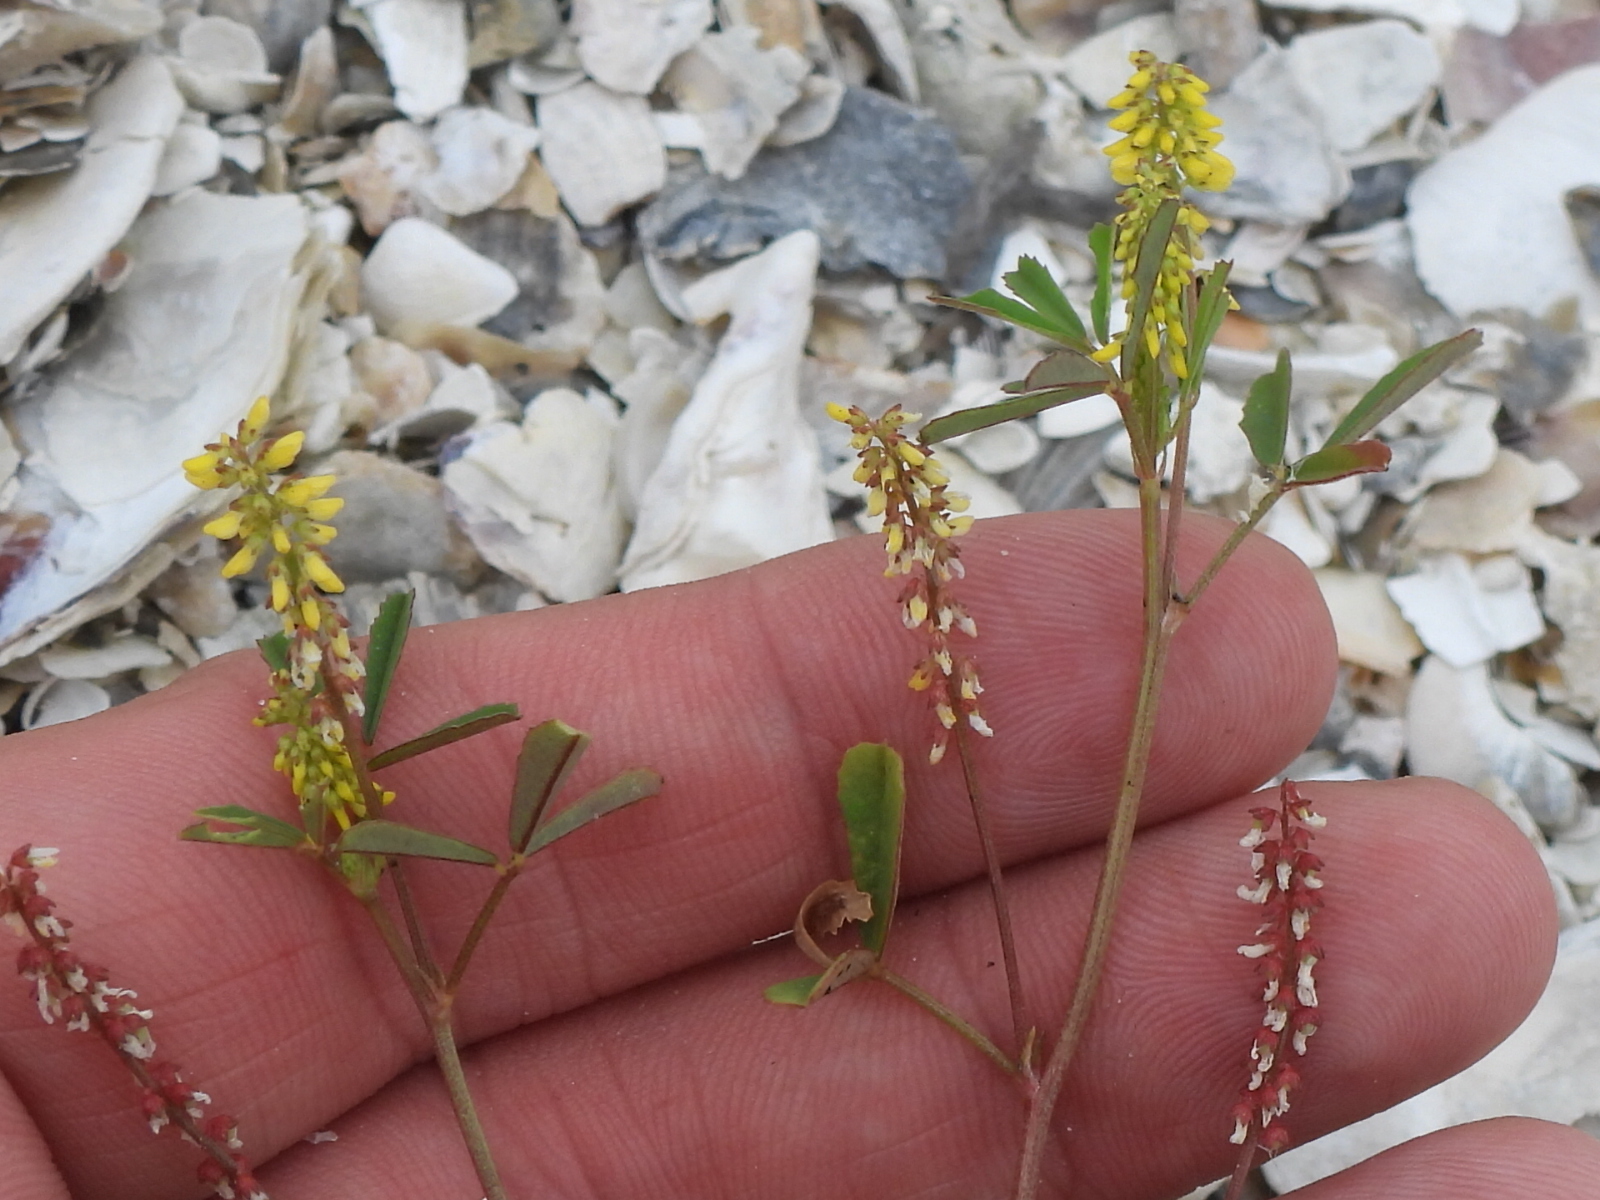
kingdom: Plantae
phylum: Tracheophyta
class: Magnoliopsida
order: Fabales
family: Fabaceae
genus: Melilotus
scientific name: Melilotus indicus
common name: Small melilot
